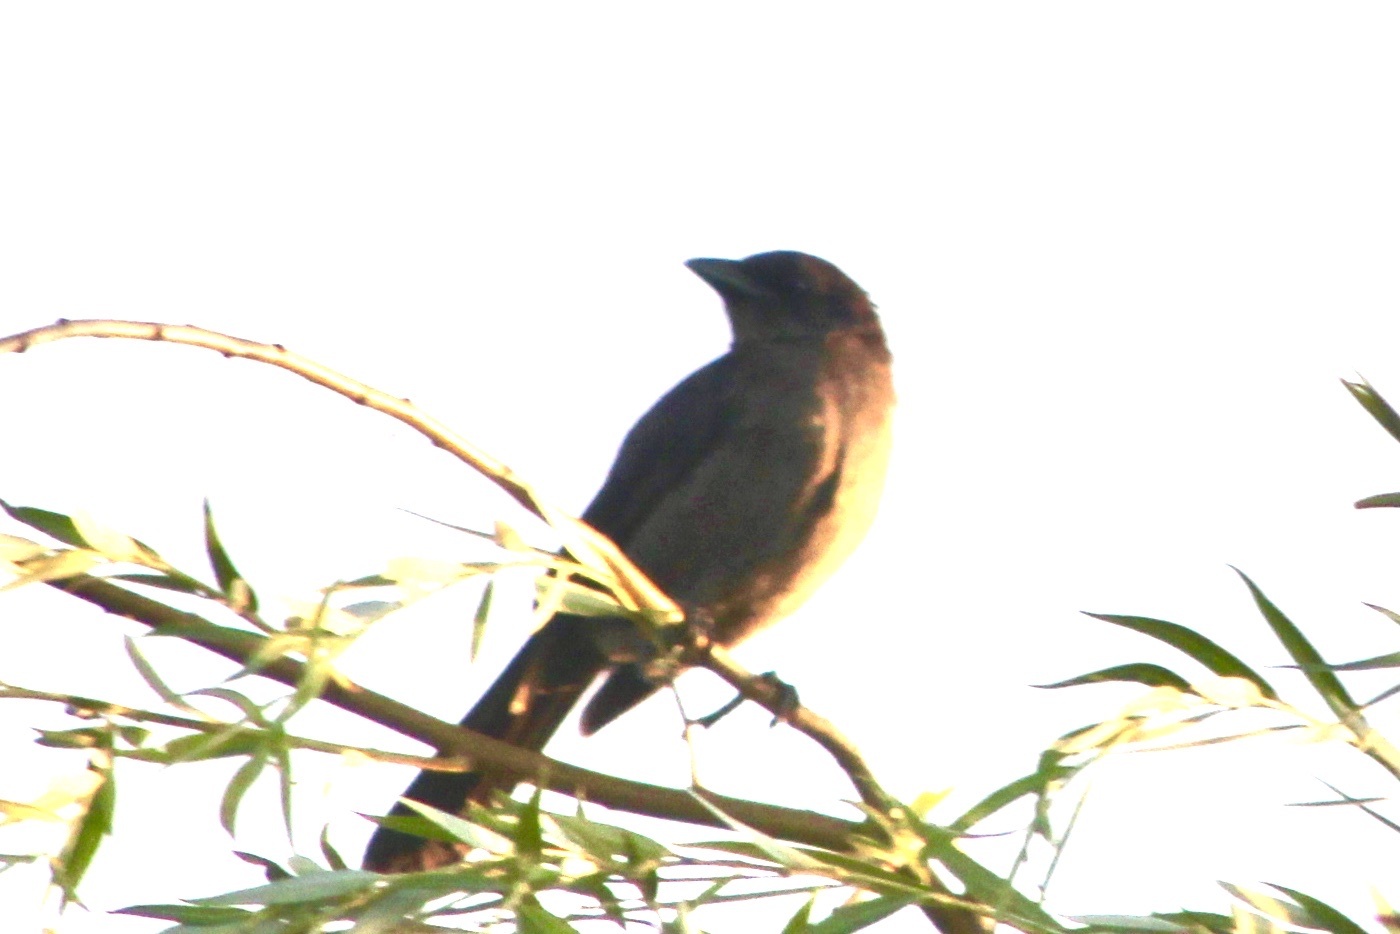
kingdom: Animalia
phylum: Chordata
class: Aves
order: Passeriformes
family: Icteridae
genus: Quiscalus
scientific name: Quiscalus quiscula
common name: Common grackle
